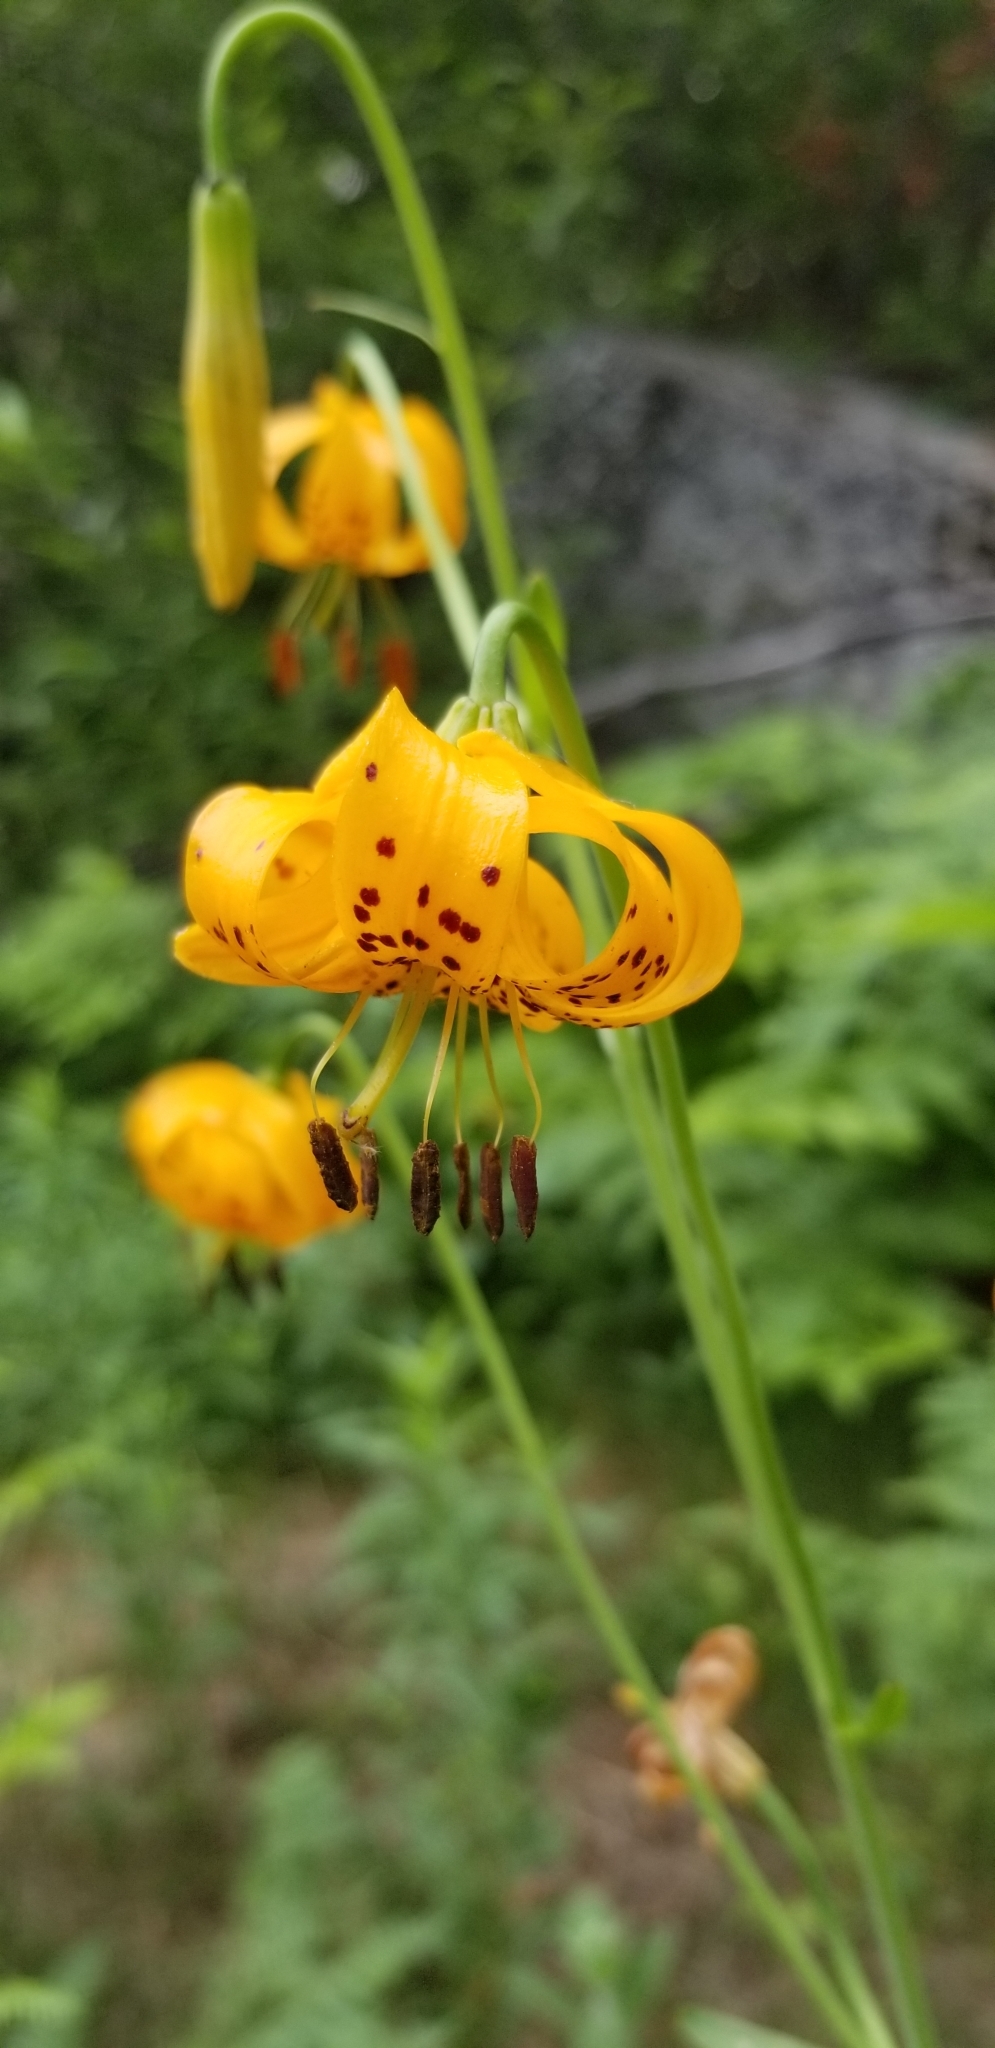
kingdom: Plantae
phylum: Tracheophyta
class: Liliopsida
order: Liliales
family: Liliaceae
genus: Lilium
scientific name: Lilium kelleyanum
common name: Kelley's lily
